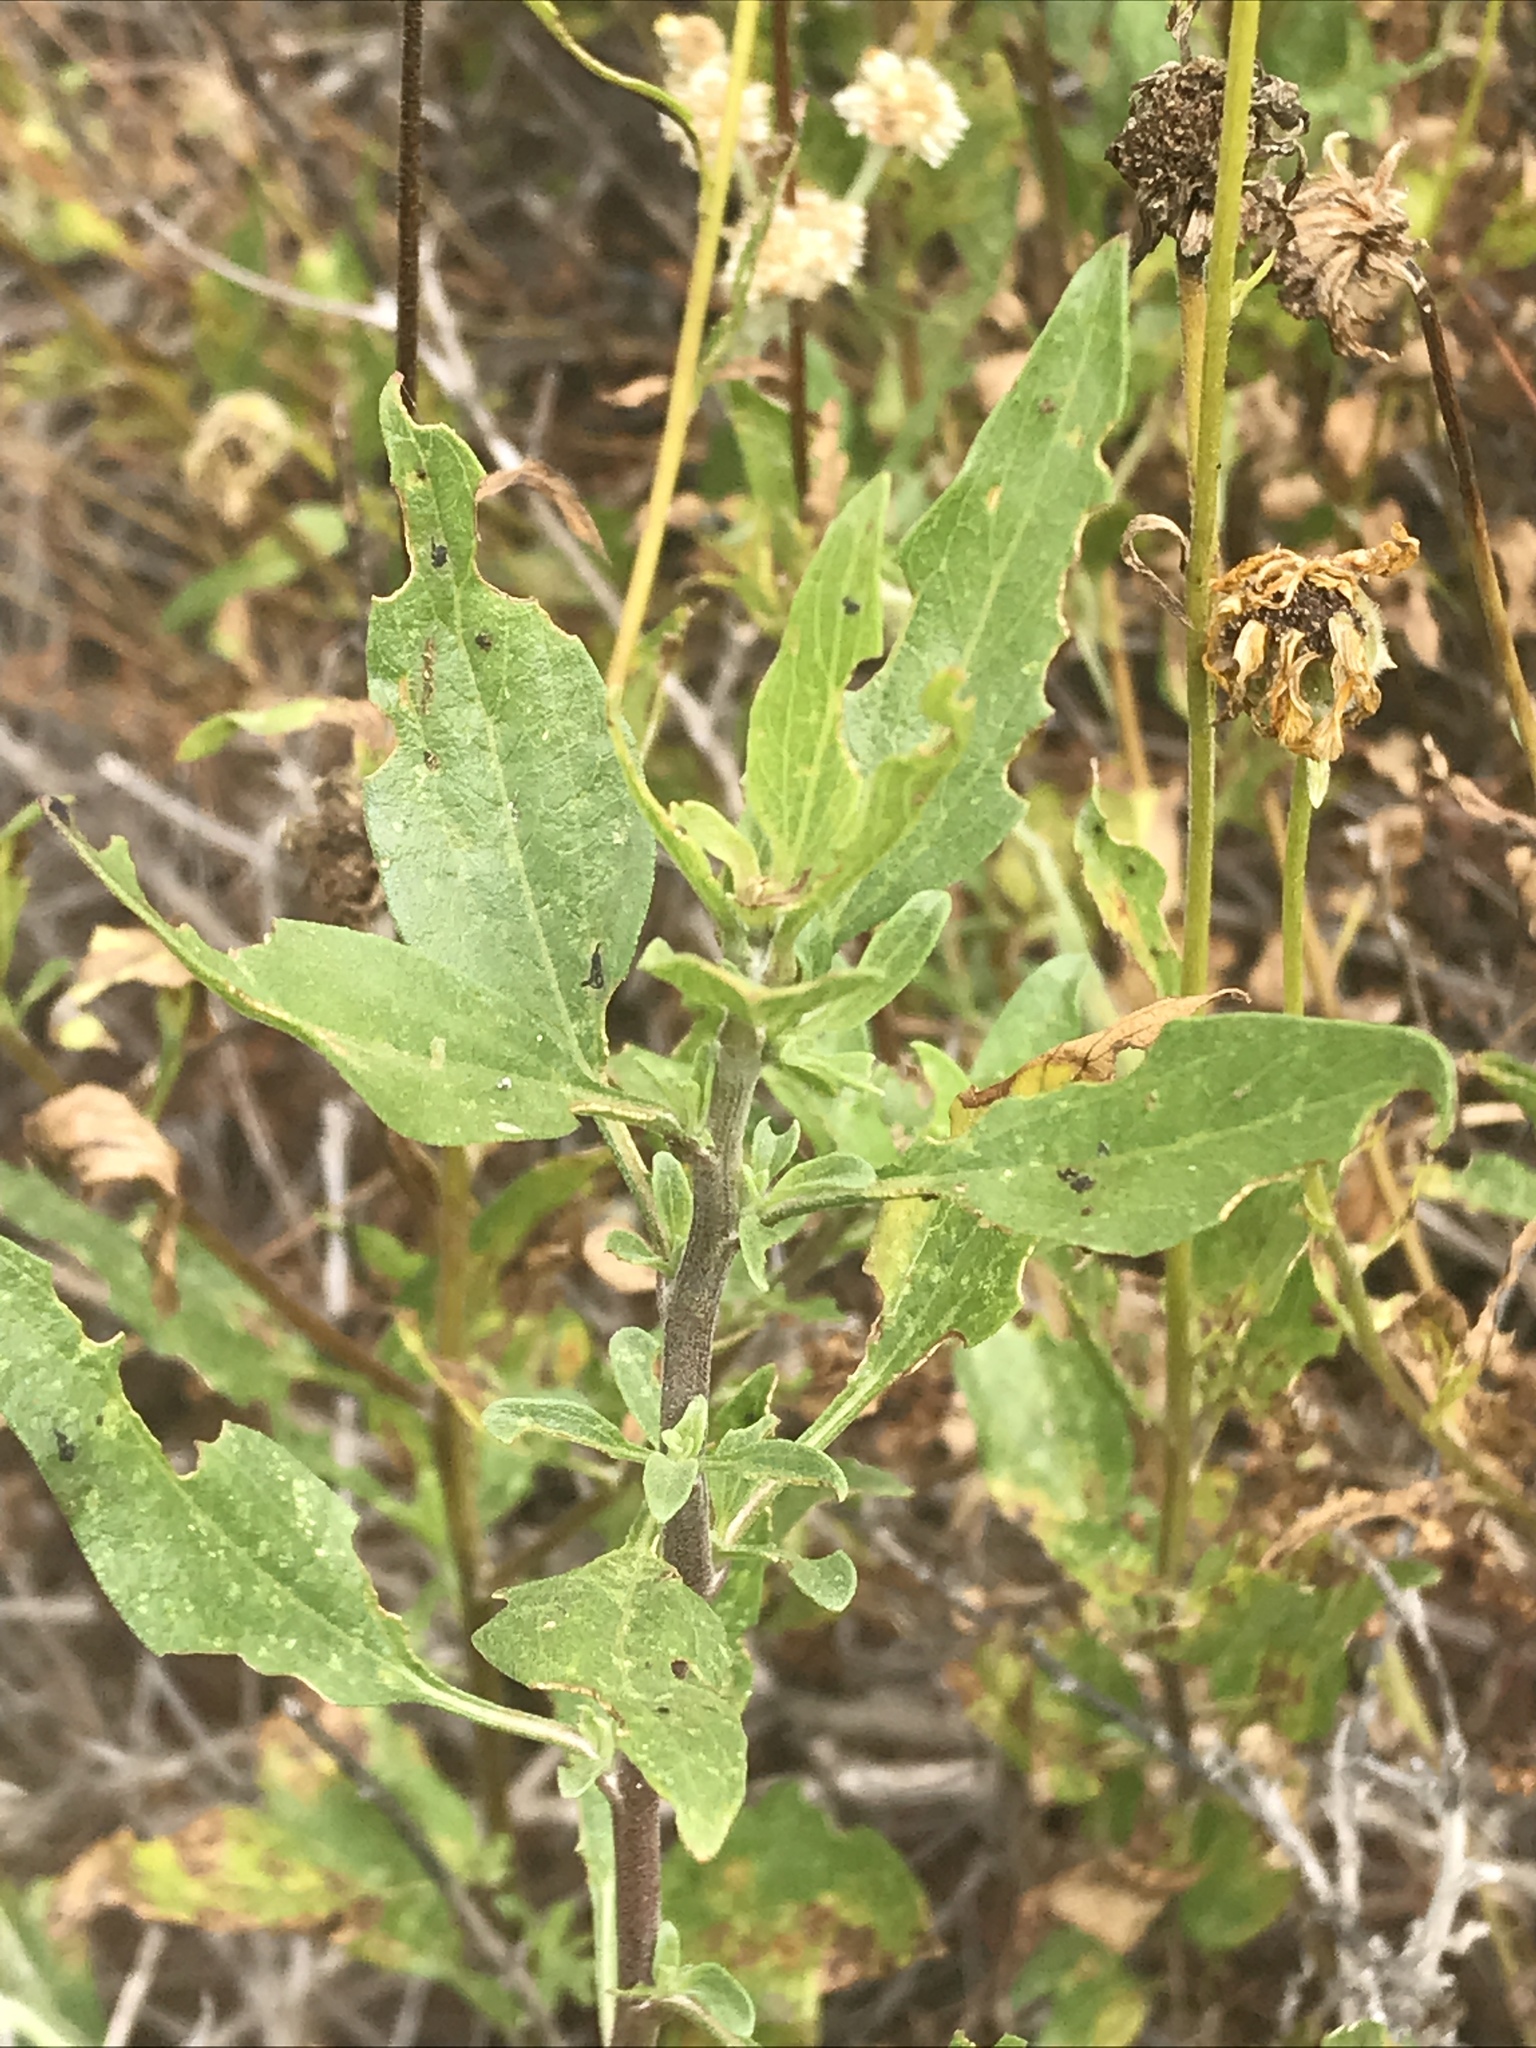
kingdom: Plantae
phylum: Tracheophyta
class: Magnoliopsida
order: Asterales
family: Asteraceae
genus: Encelia
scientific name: Encelia californica
